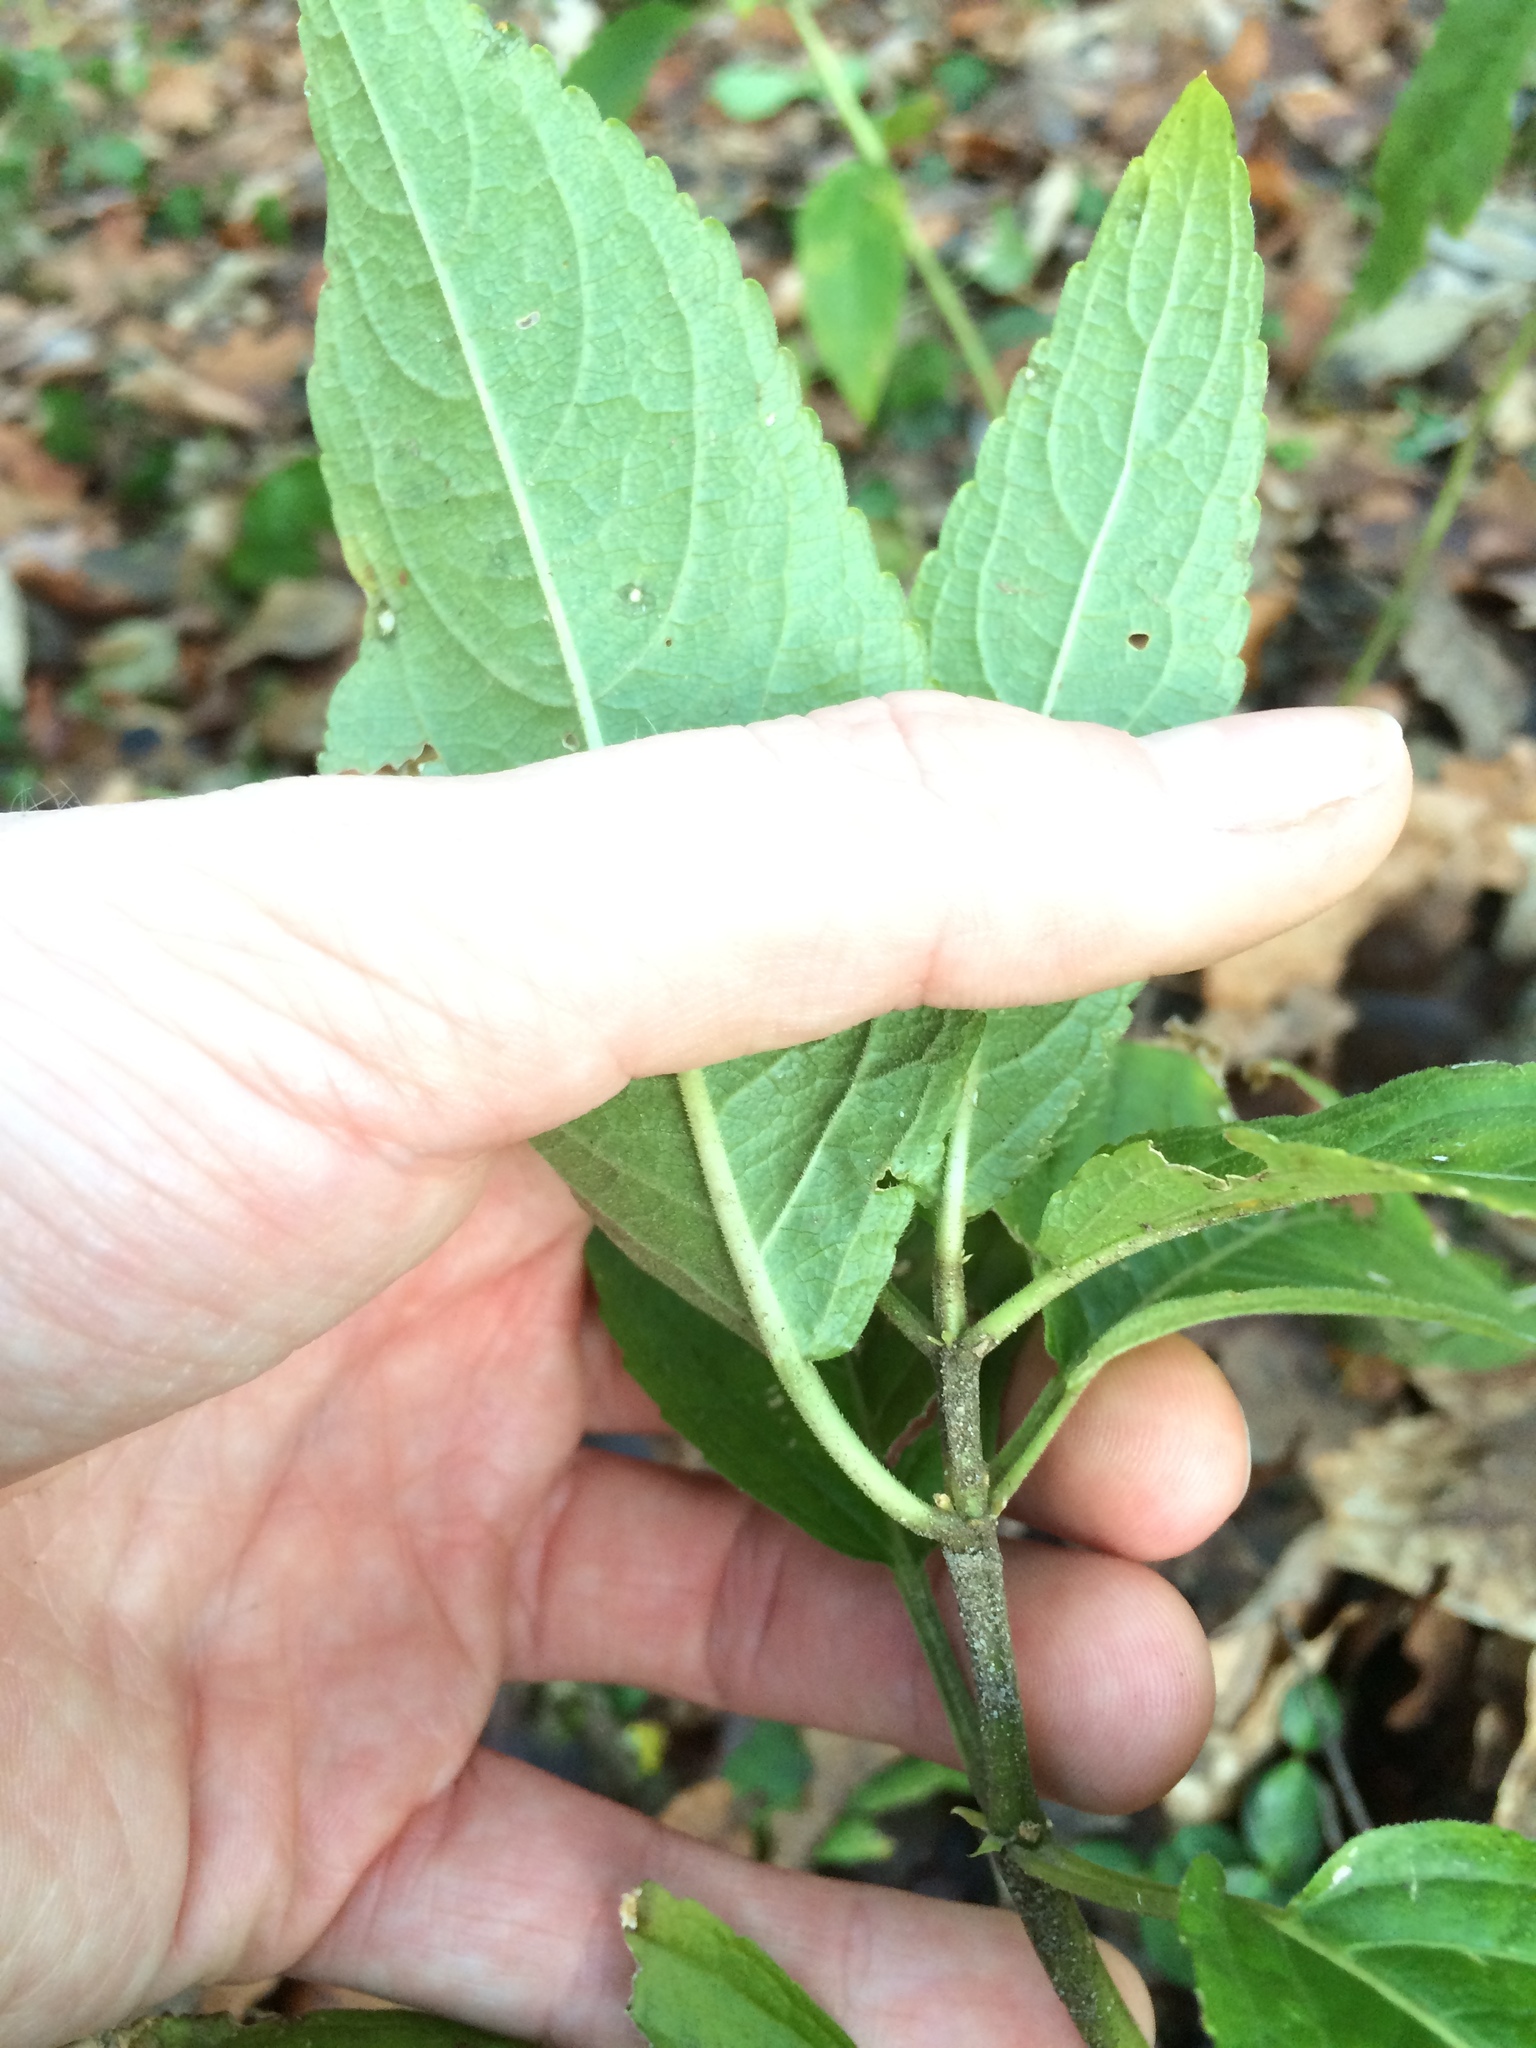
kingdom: Plantae
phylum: Tracheophyta
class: Magnoliopsida
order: Malpighiales
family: Euphorbiaceae
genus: Mercurialis
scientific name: Mercurialis perennis
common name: Dog mercury
